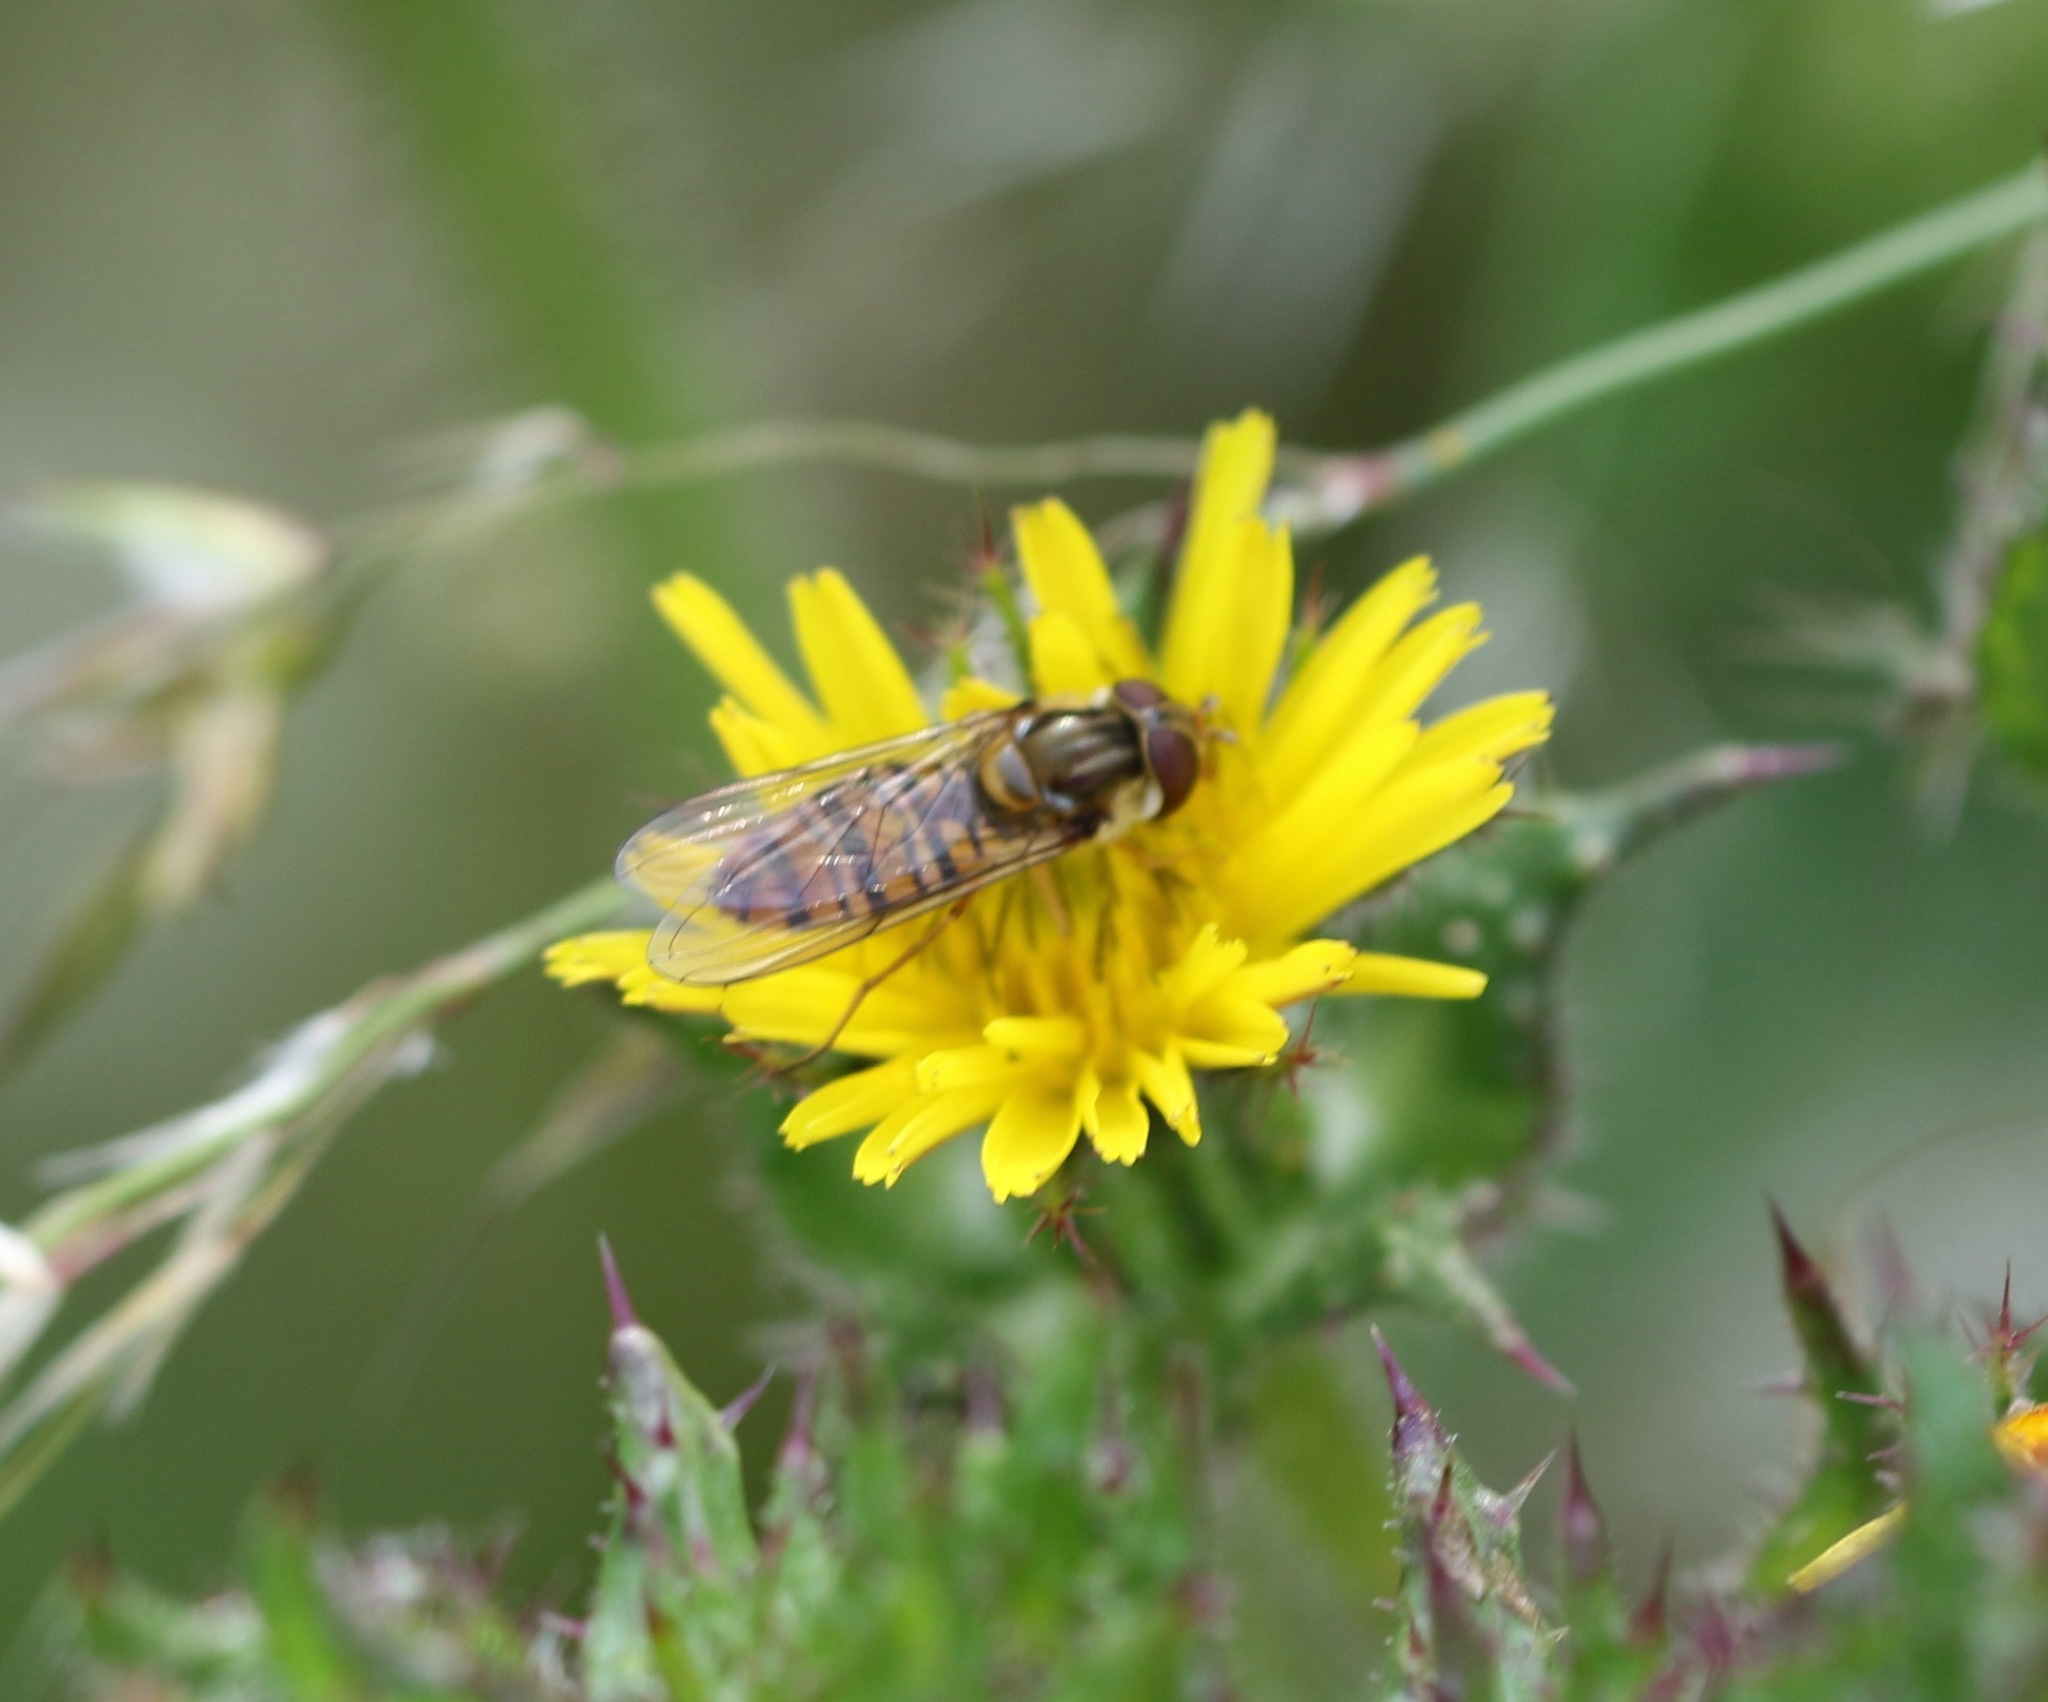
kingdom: Animalia
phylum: Arthropoda
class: Insecta
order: Diptera
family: Syrphidae
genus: Episyrphus
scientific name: Episyrphus balteatus
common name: Marmalade hoverfly
